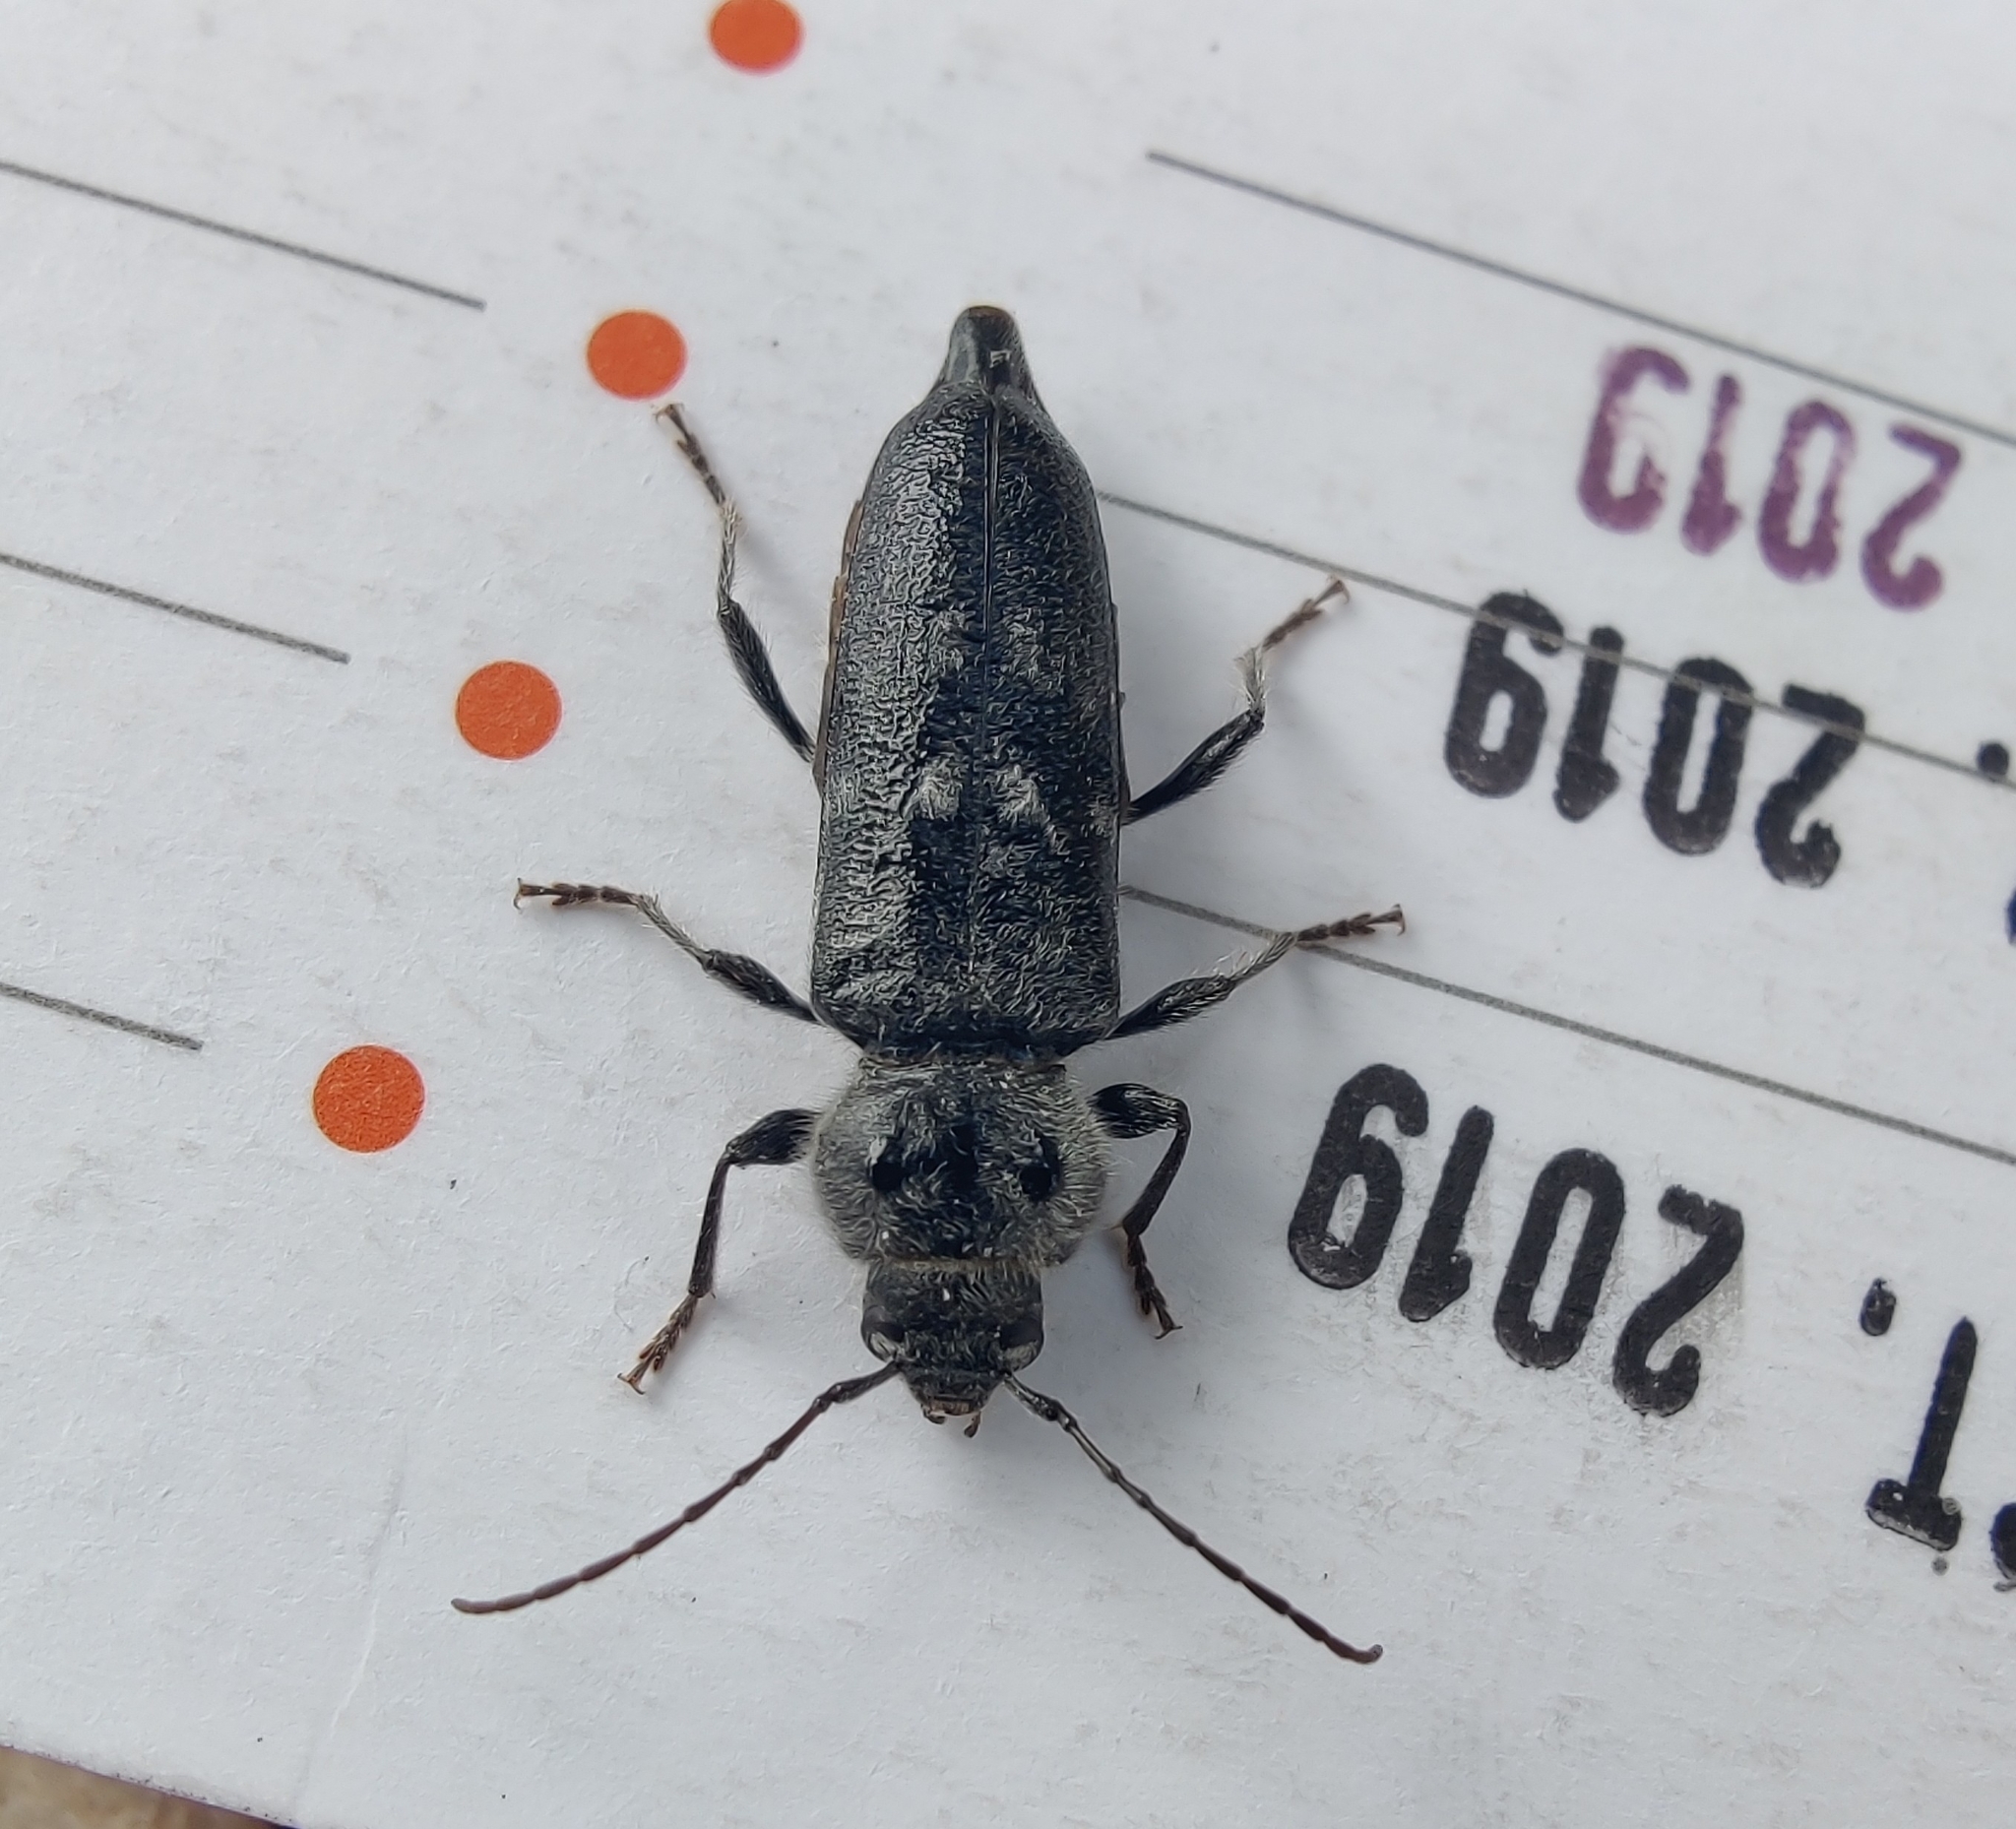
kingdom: Animalia
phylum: Arthropoda
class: Insecta
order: Coleoptera
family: Cerambycidae
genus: Hylotrupes
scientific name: Hylotrupes bajulus
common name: Old house borer
